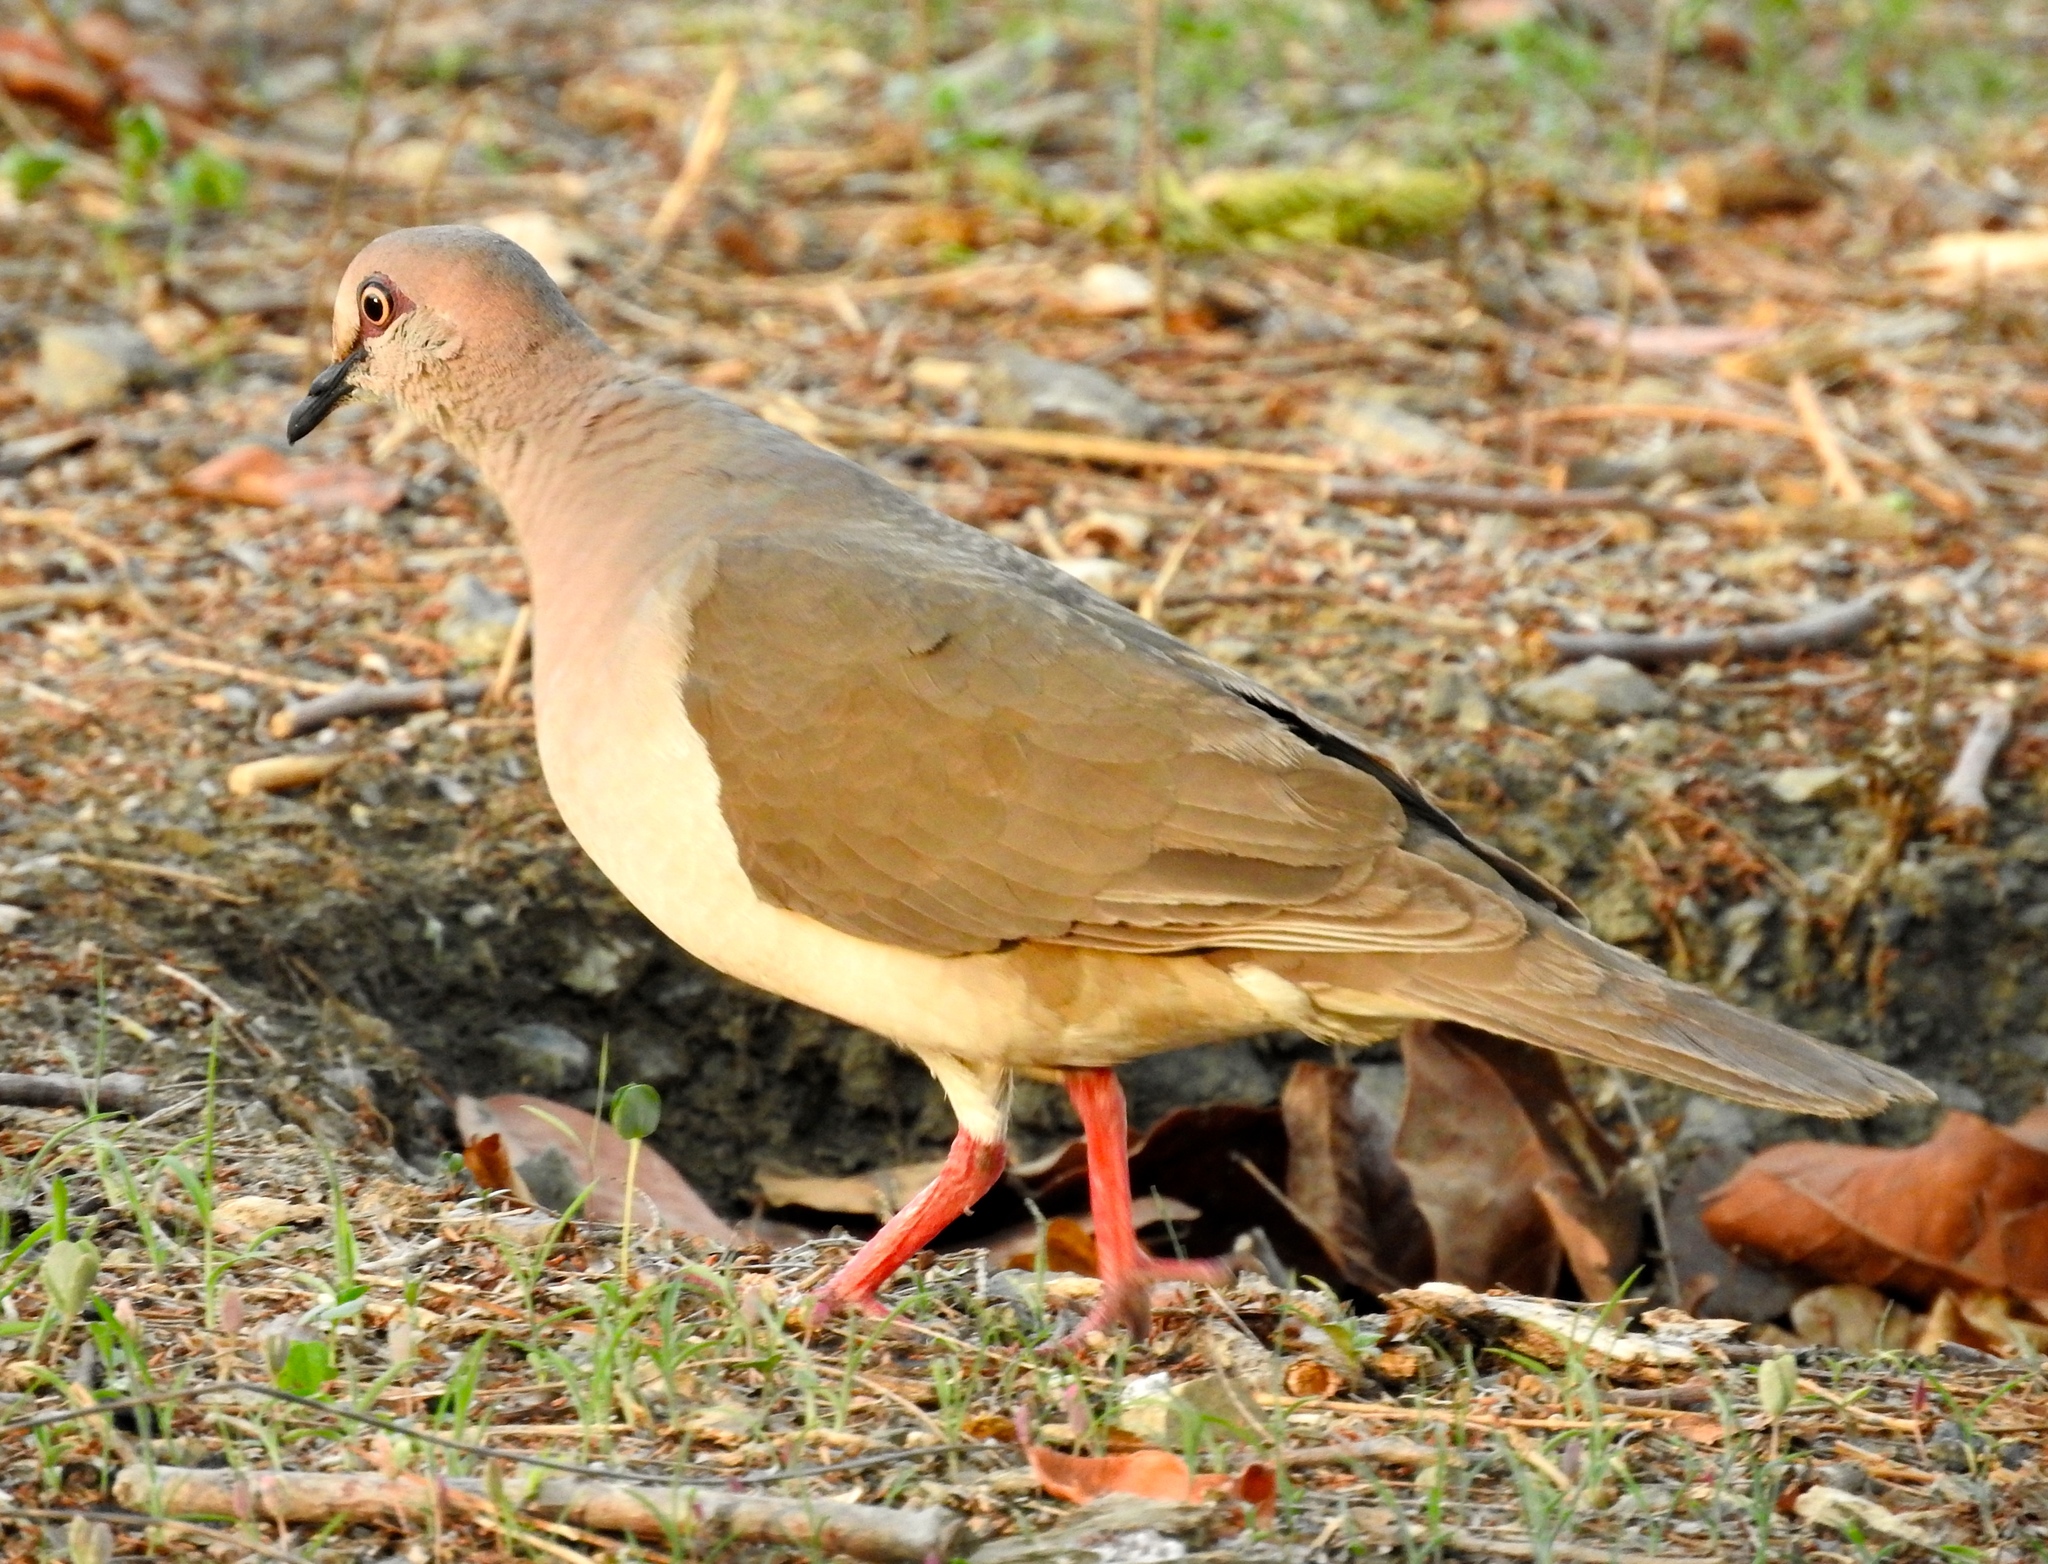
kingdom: Animalia
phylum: Chordata
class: Aves
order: Columbiformes
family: Columbidae
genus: Leptotila
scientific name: Leptotila verreauxi
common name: White-tipped dove
